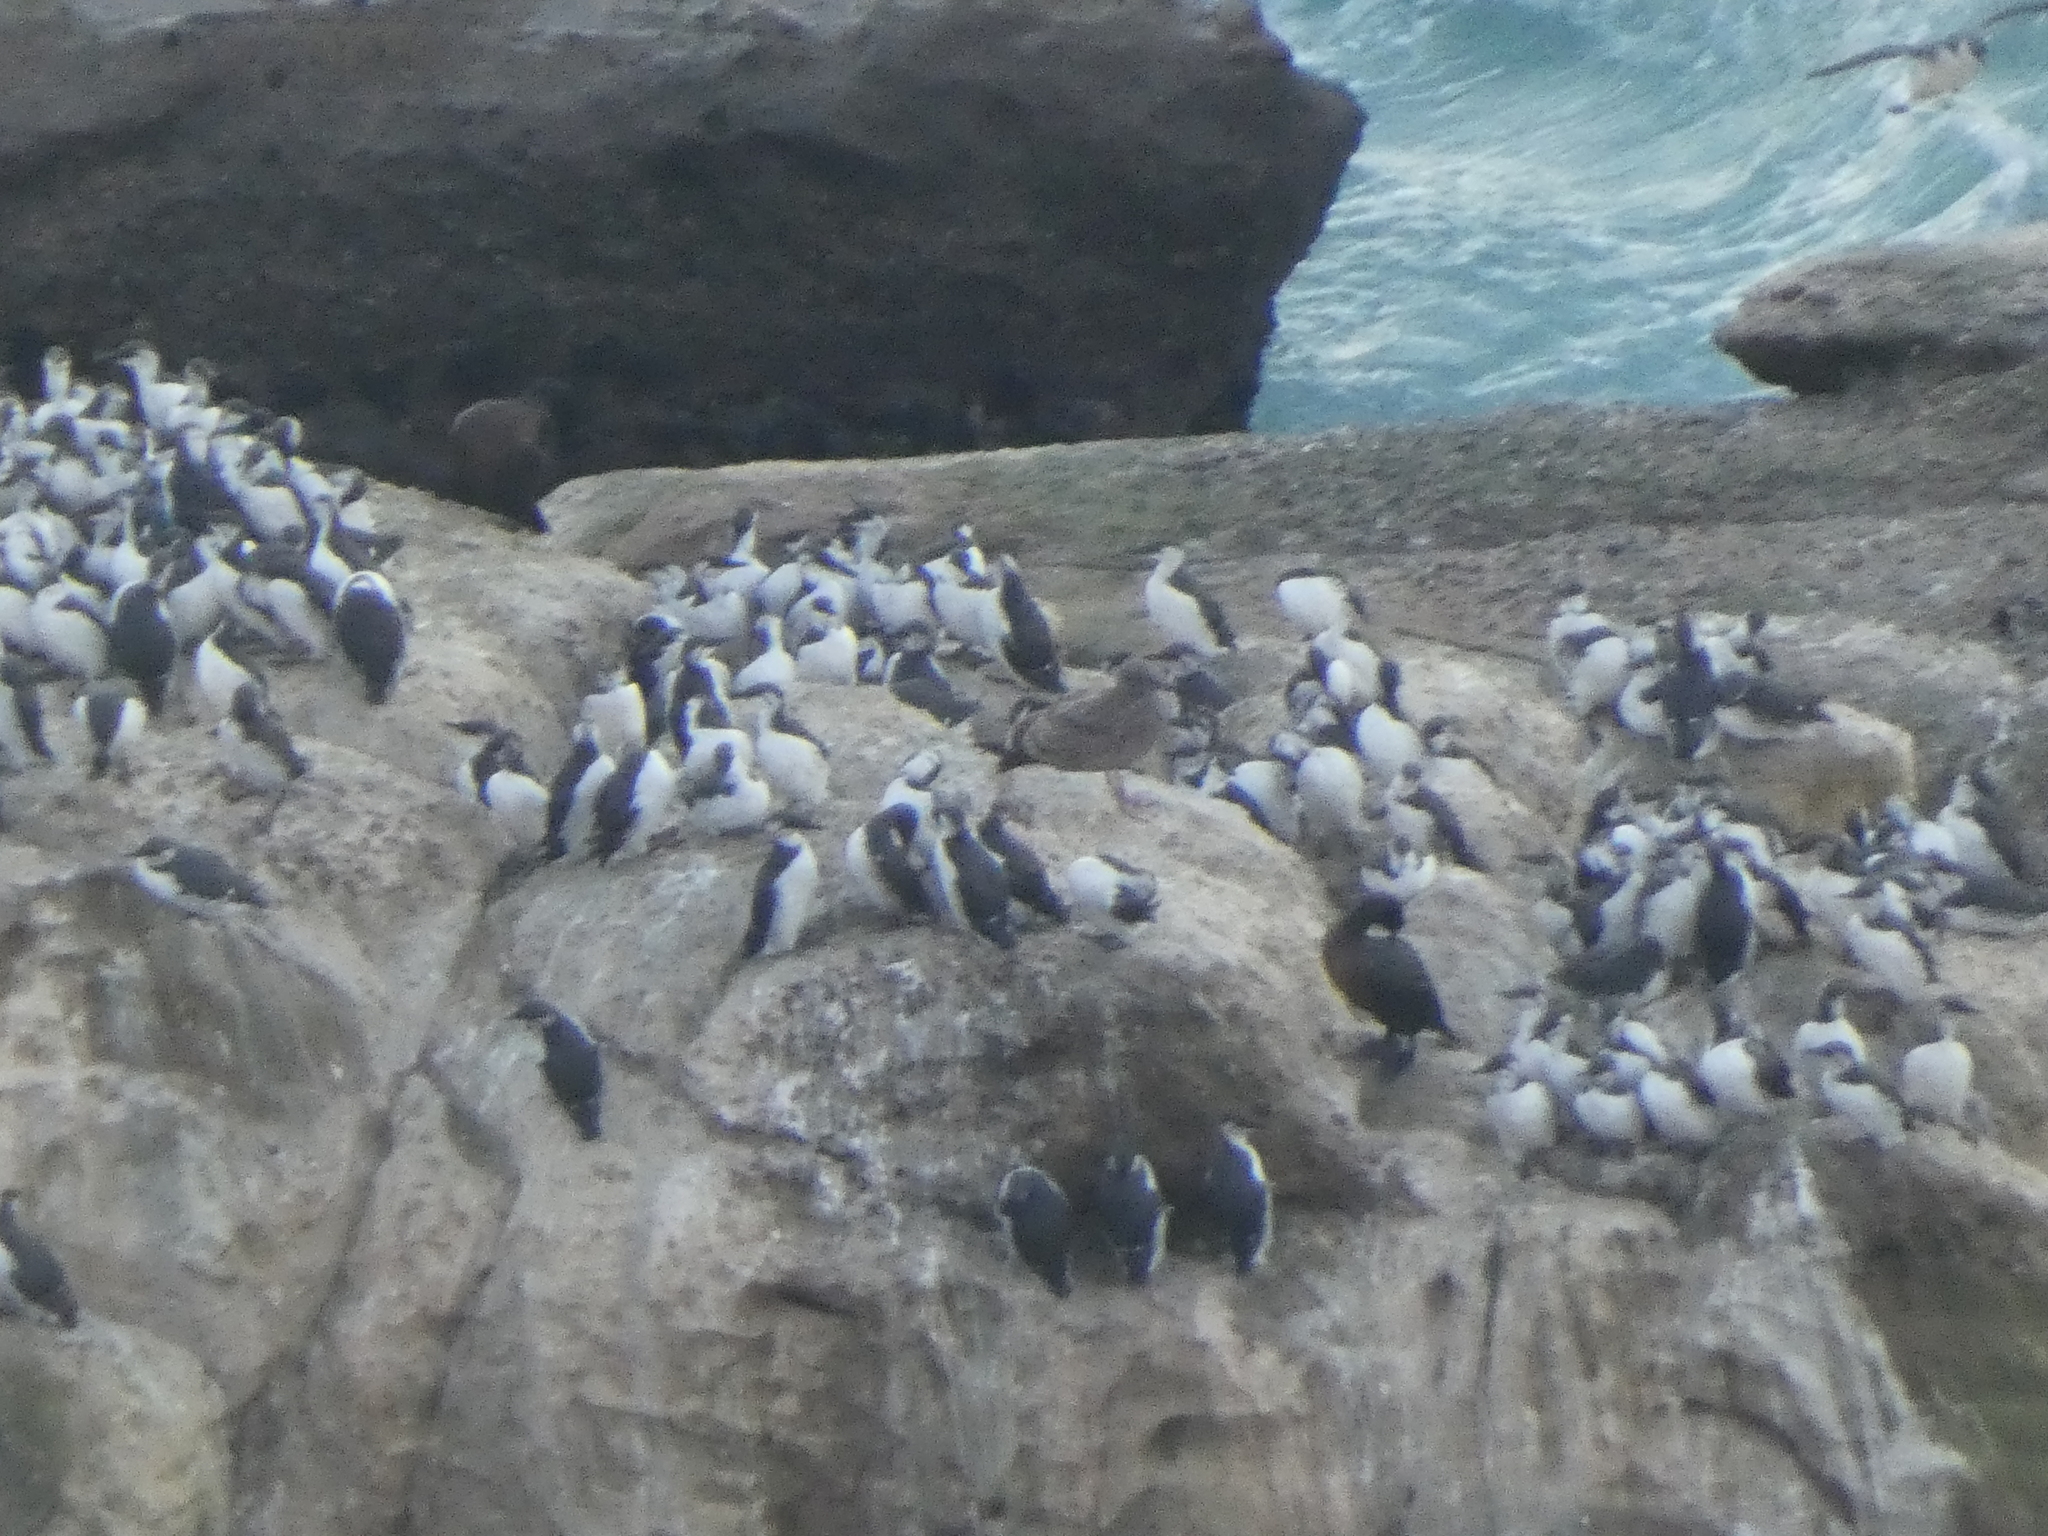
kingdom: Animalia
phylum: Chordata
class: Aves
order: Charadriiformes
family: Alcidae
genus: Uria
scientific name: Uria aalge
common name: Common murre
